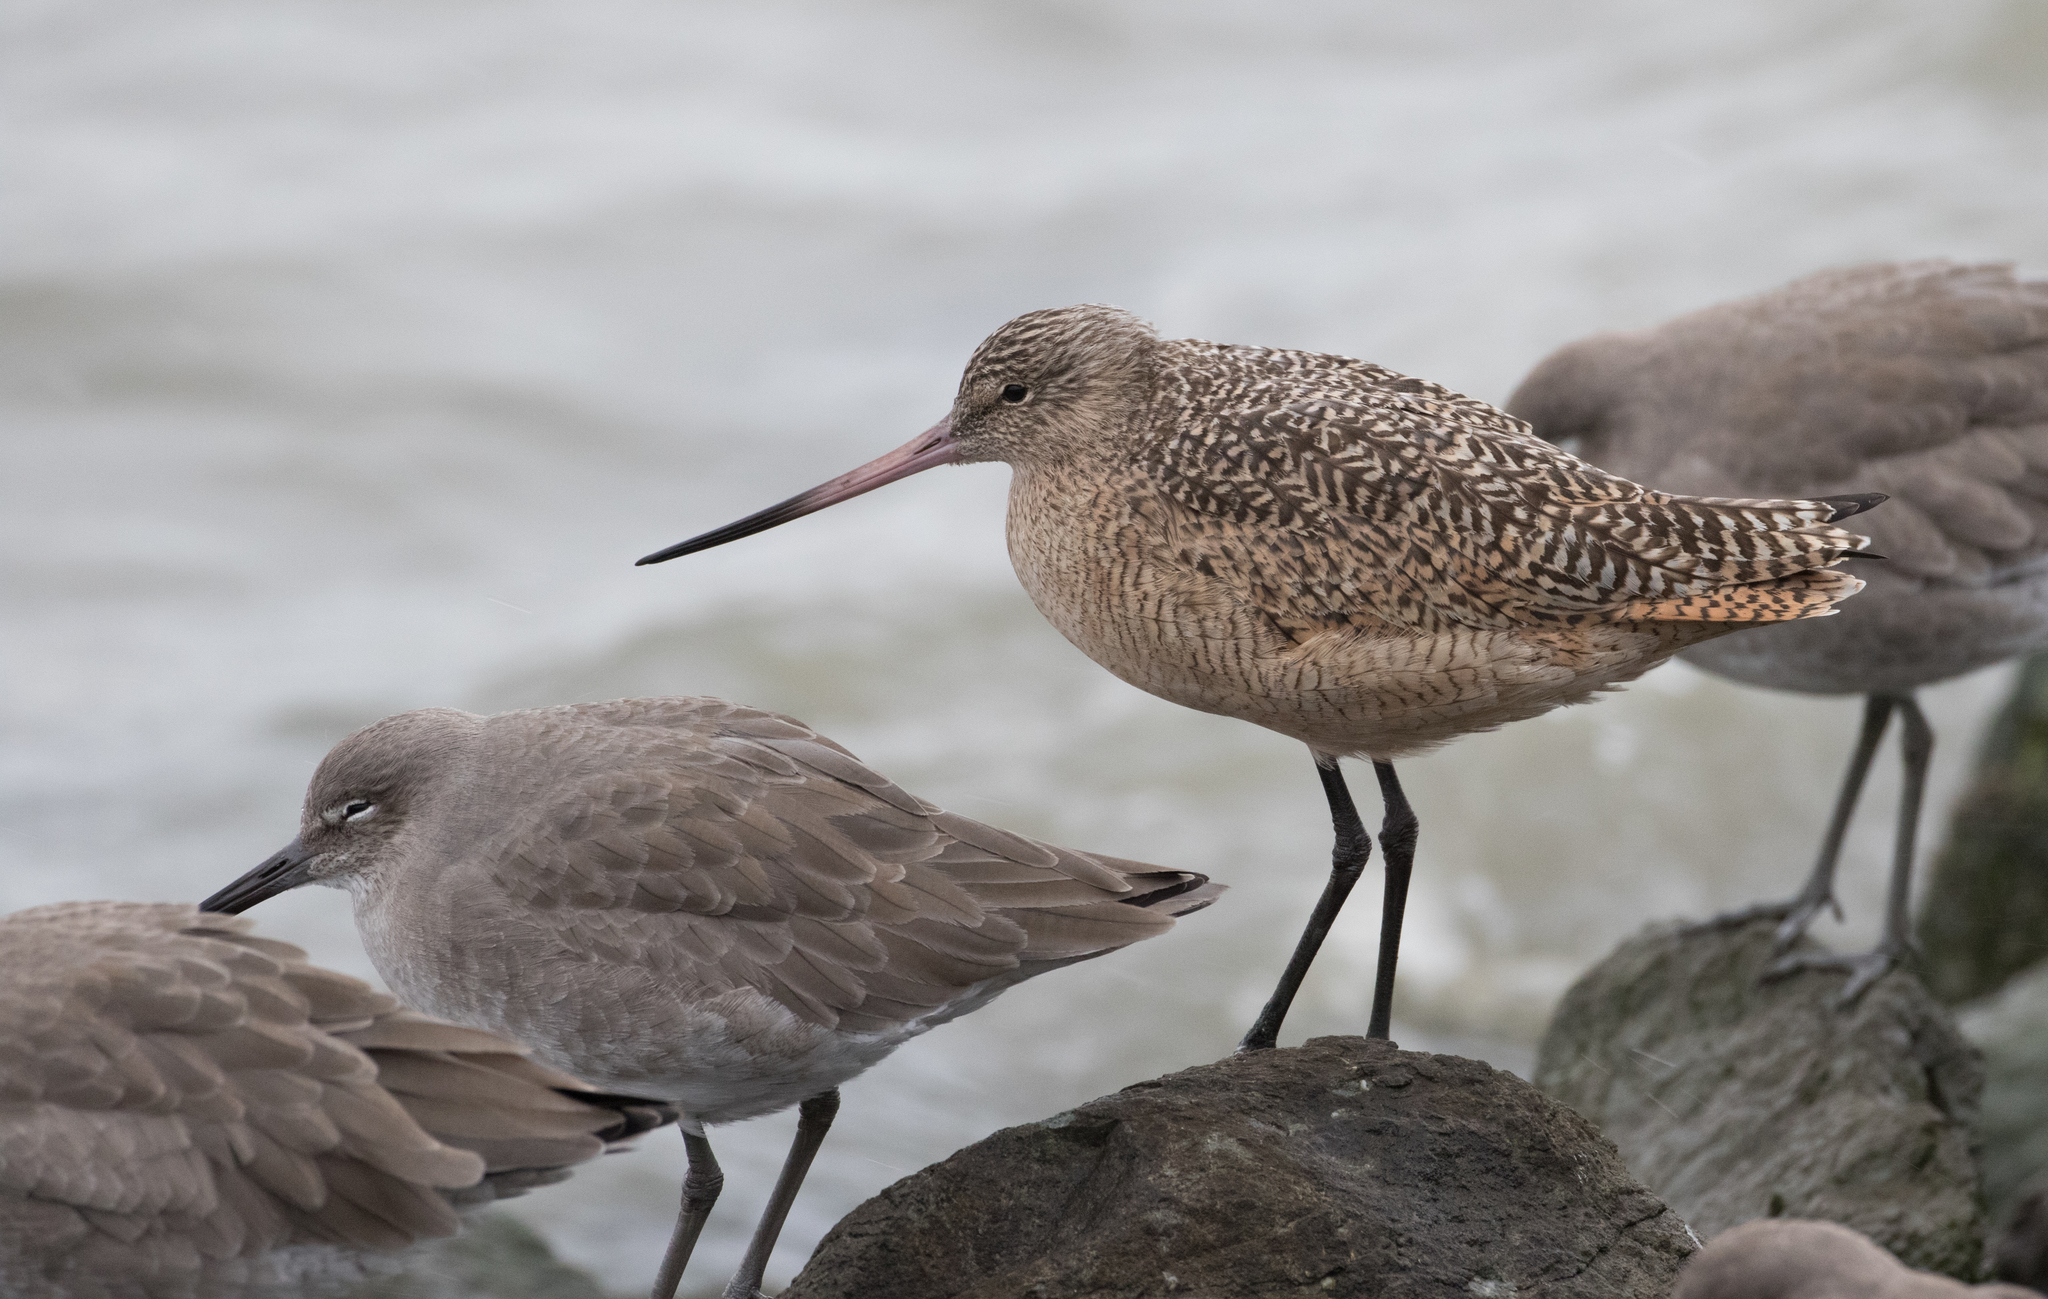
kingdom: Animalia
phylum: Chordata
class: Aves
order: Charadriiformes
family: Scolopacidae
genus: Limosa
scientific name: Limosa fedoa
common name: Marbled godwit
